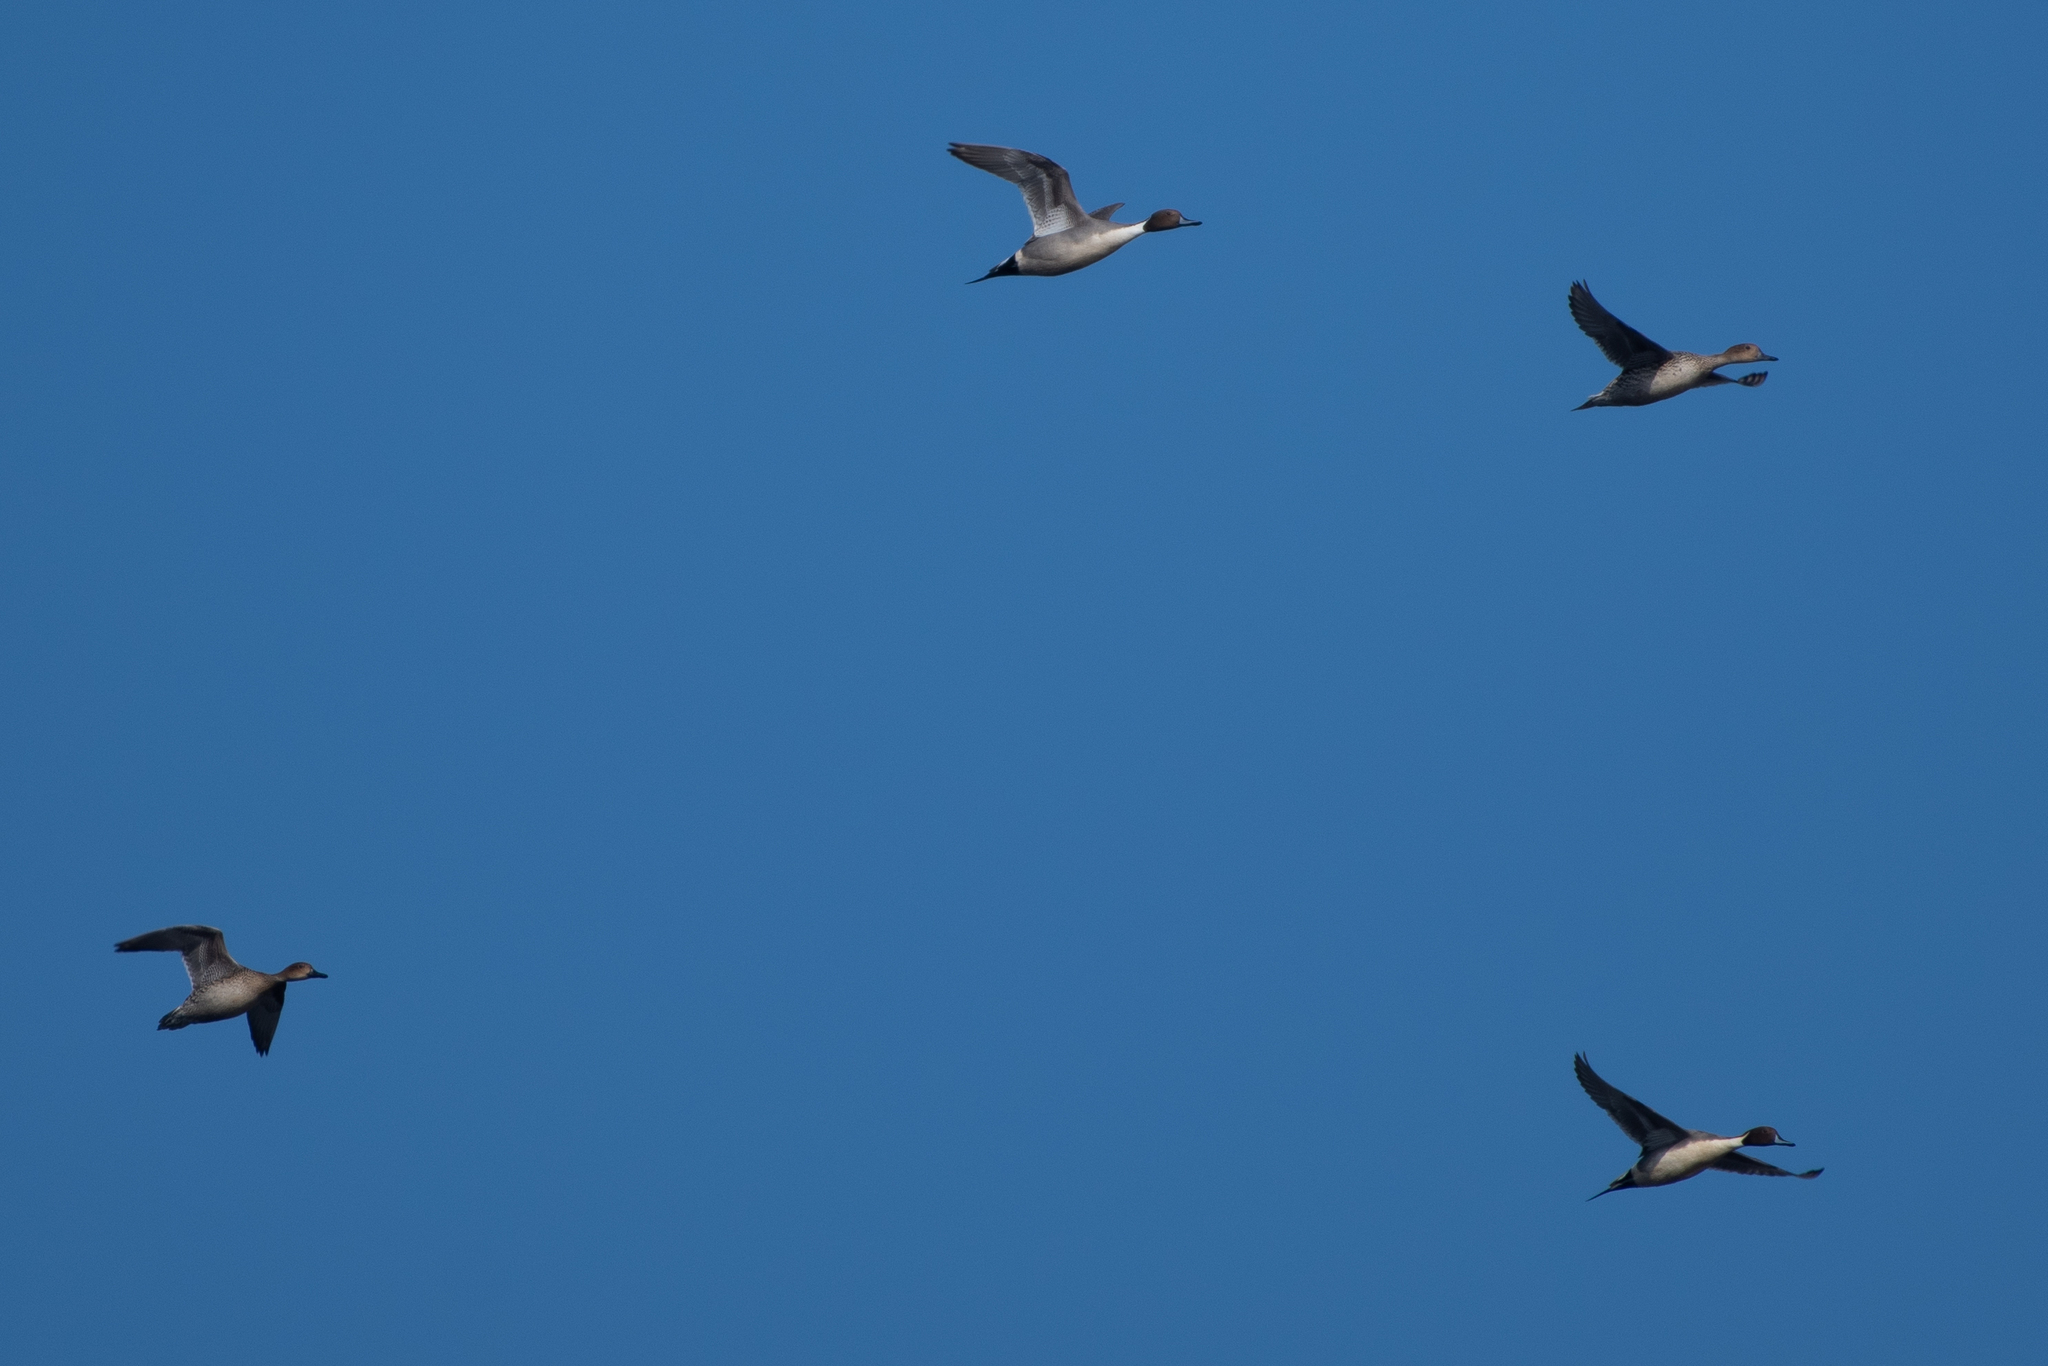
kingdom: Animalia
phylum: Chordata
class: Aves
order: Anseriformes
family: Anatidae
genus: Anas
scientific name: Anas acuta
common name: Northern pintail
